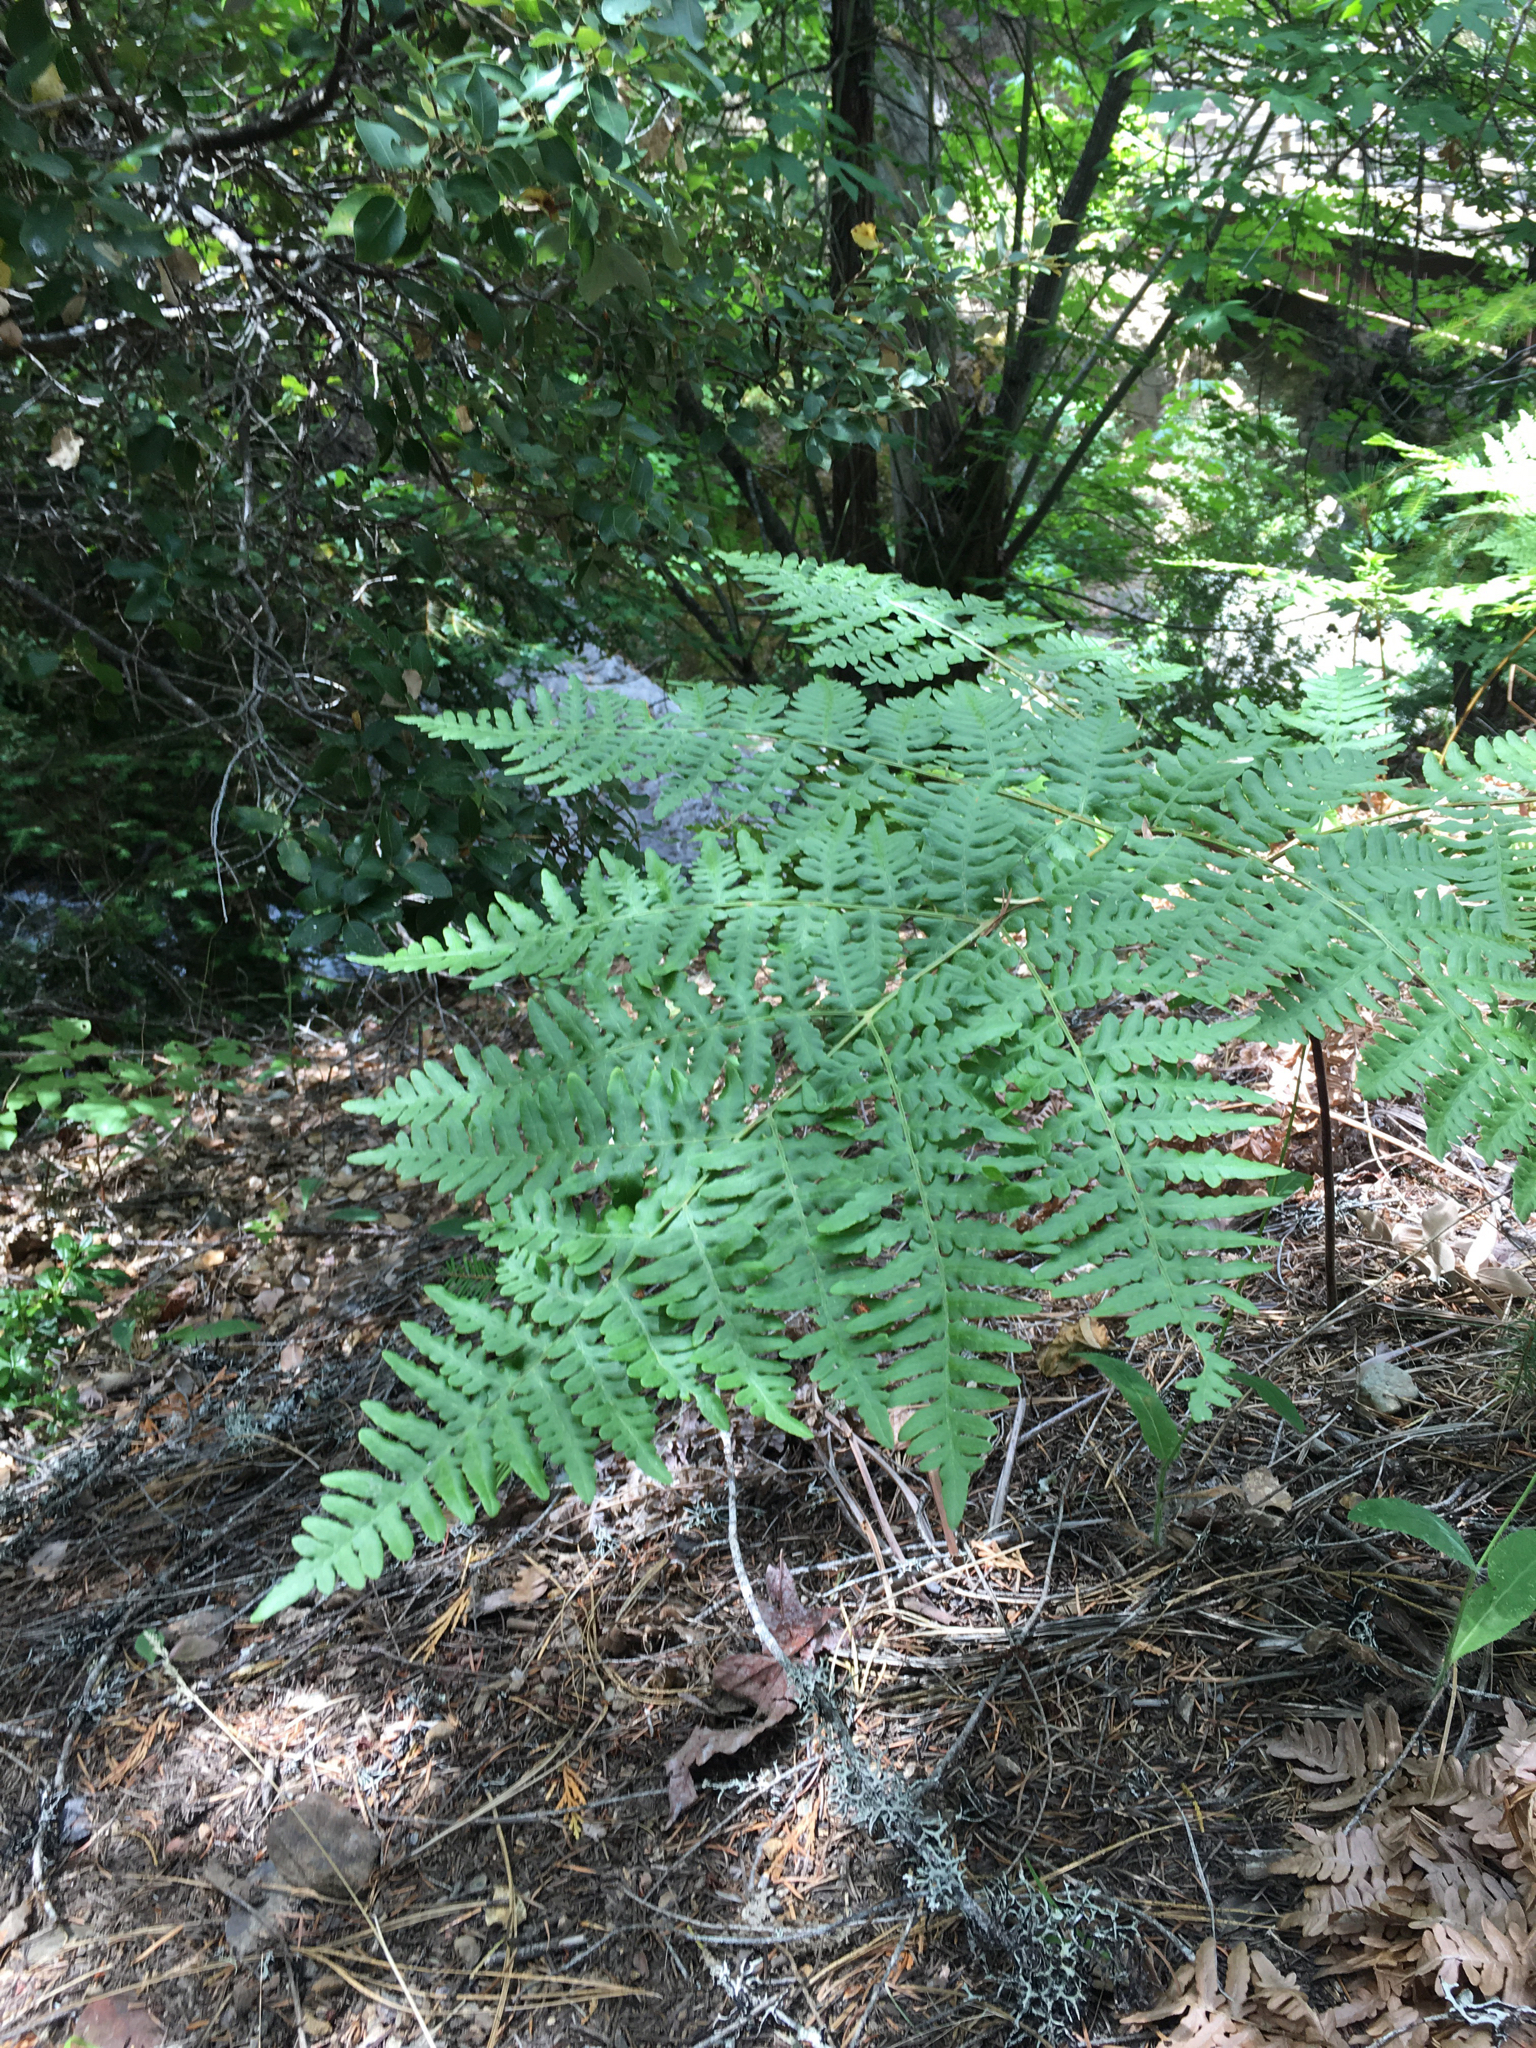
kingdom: Plantae
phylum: Tracheophyta
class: Polypodiopsida
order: Polypodiales
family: Dennstaedtiaceae
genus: Pteridium
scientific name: Pteridium aquilinum
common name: Bracken
